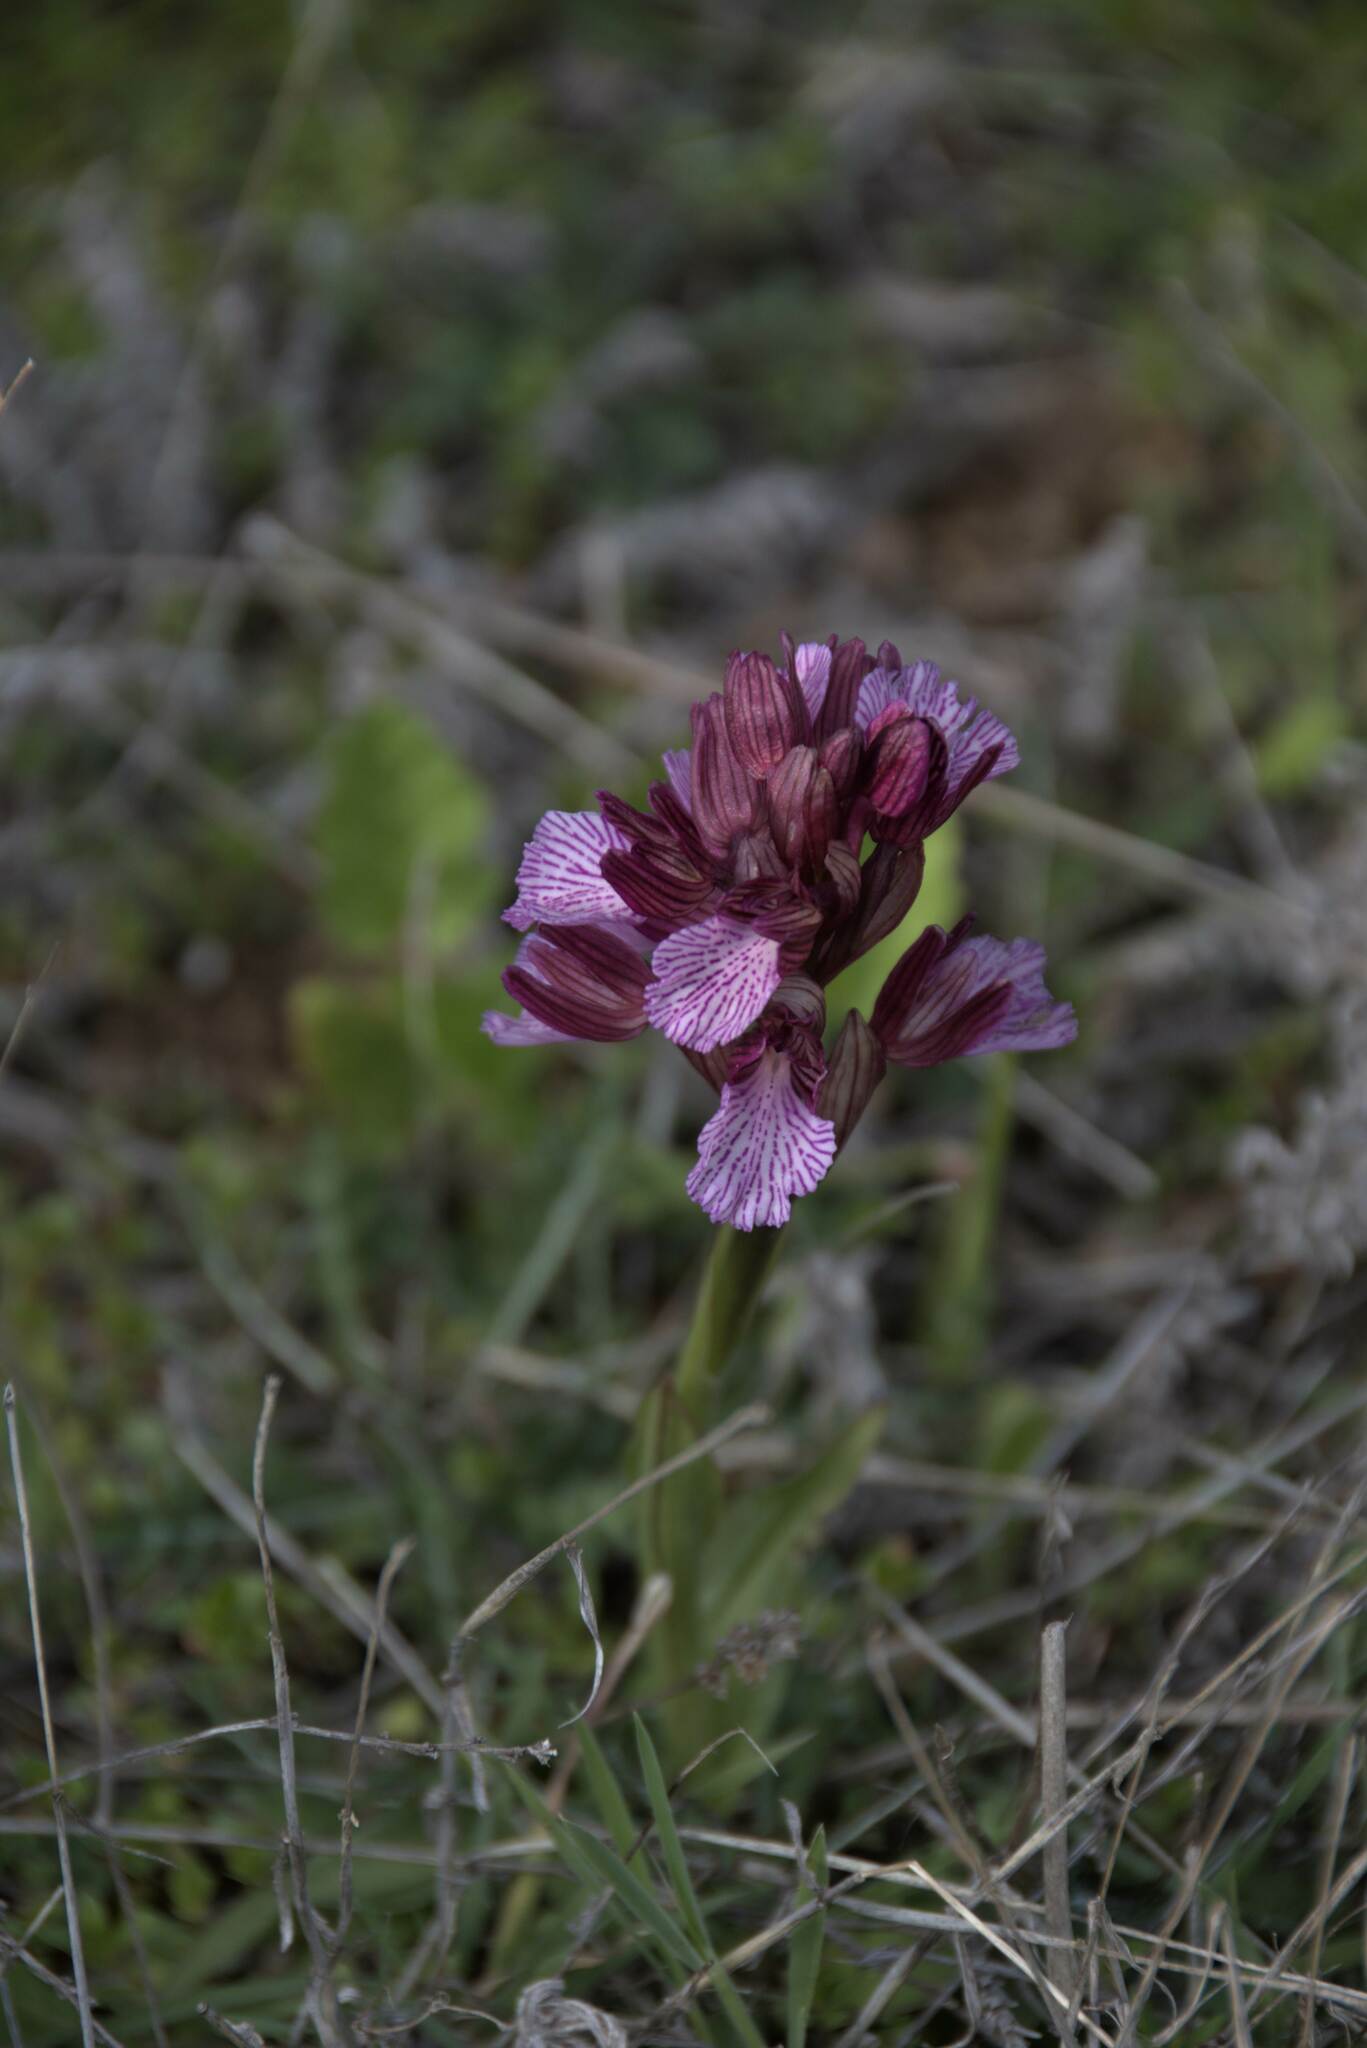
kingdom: Plantae
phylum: Tracheophyta
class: Liliopsida
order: Asparagales
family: Orchidaceae
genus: Anacamptis
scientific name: Anacamptis papilionacea
